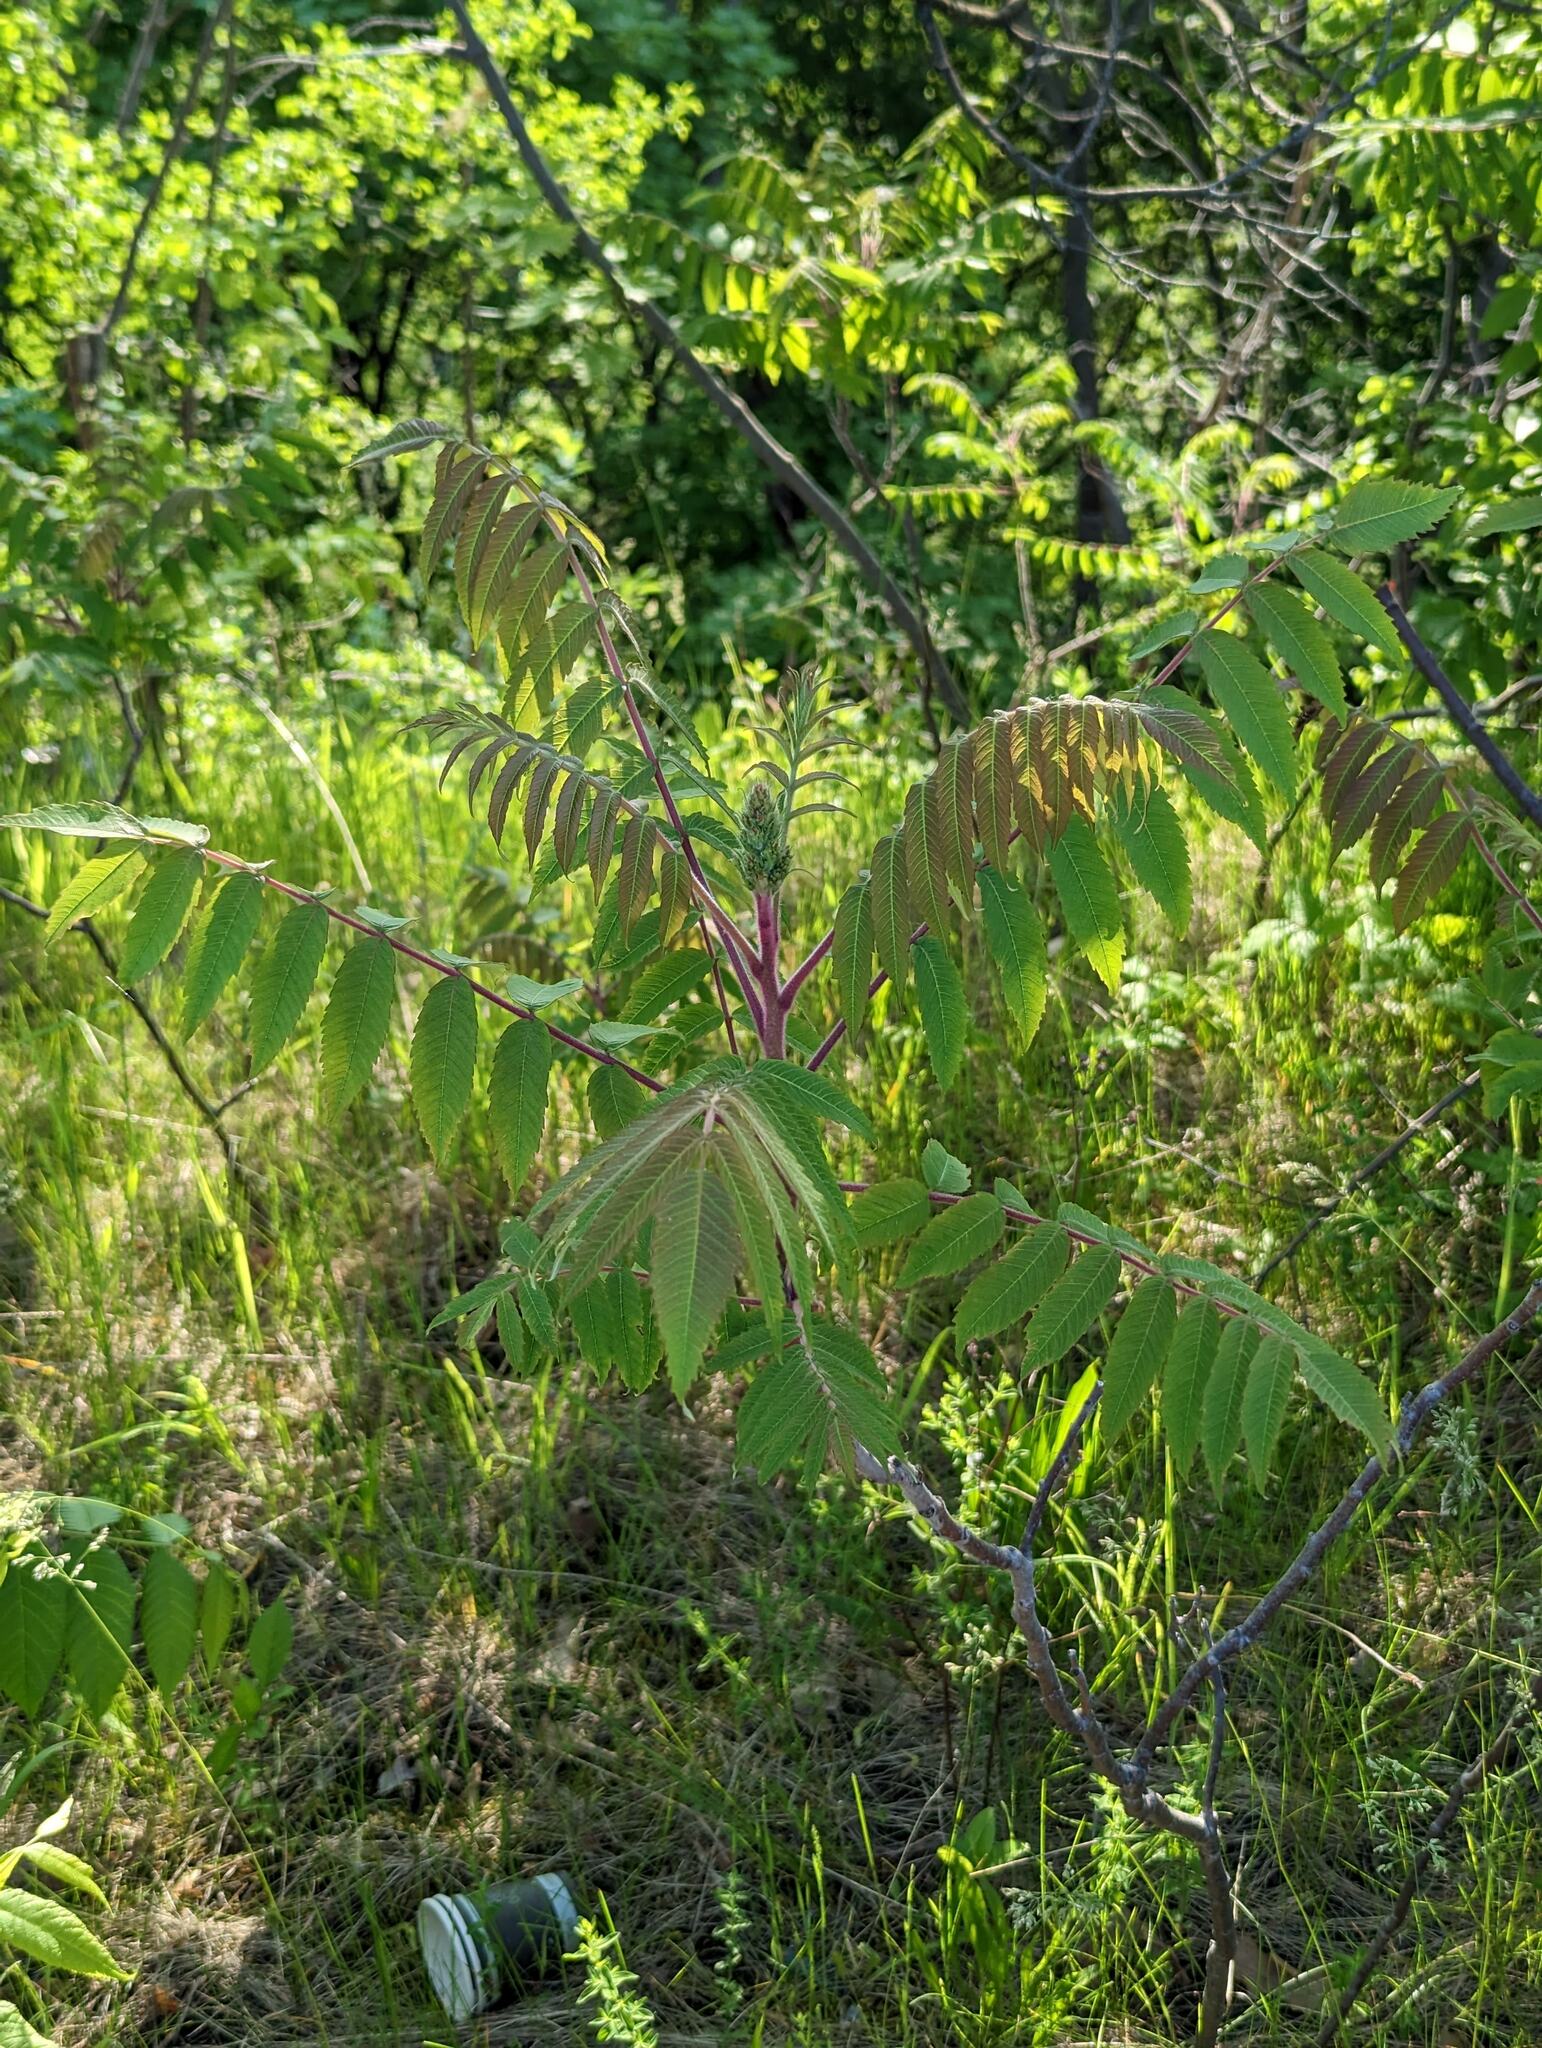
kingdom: Plantae
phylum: Tracheophyta
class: Magnoliopsida
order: Sapindales
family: Anacardiaceae
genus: Rhus
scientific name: Rhus typhina
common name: Staghorn sumac
